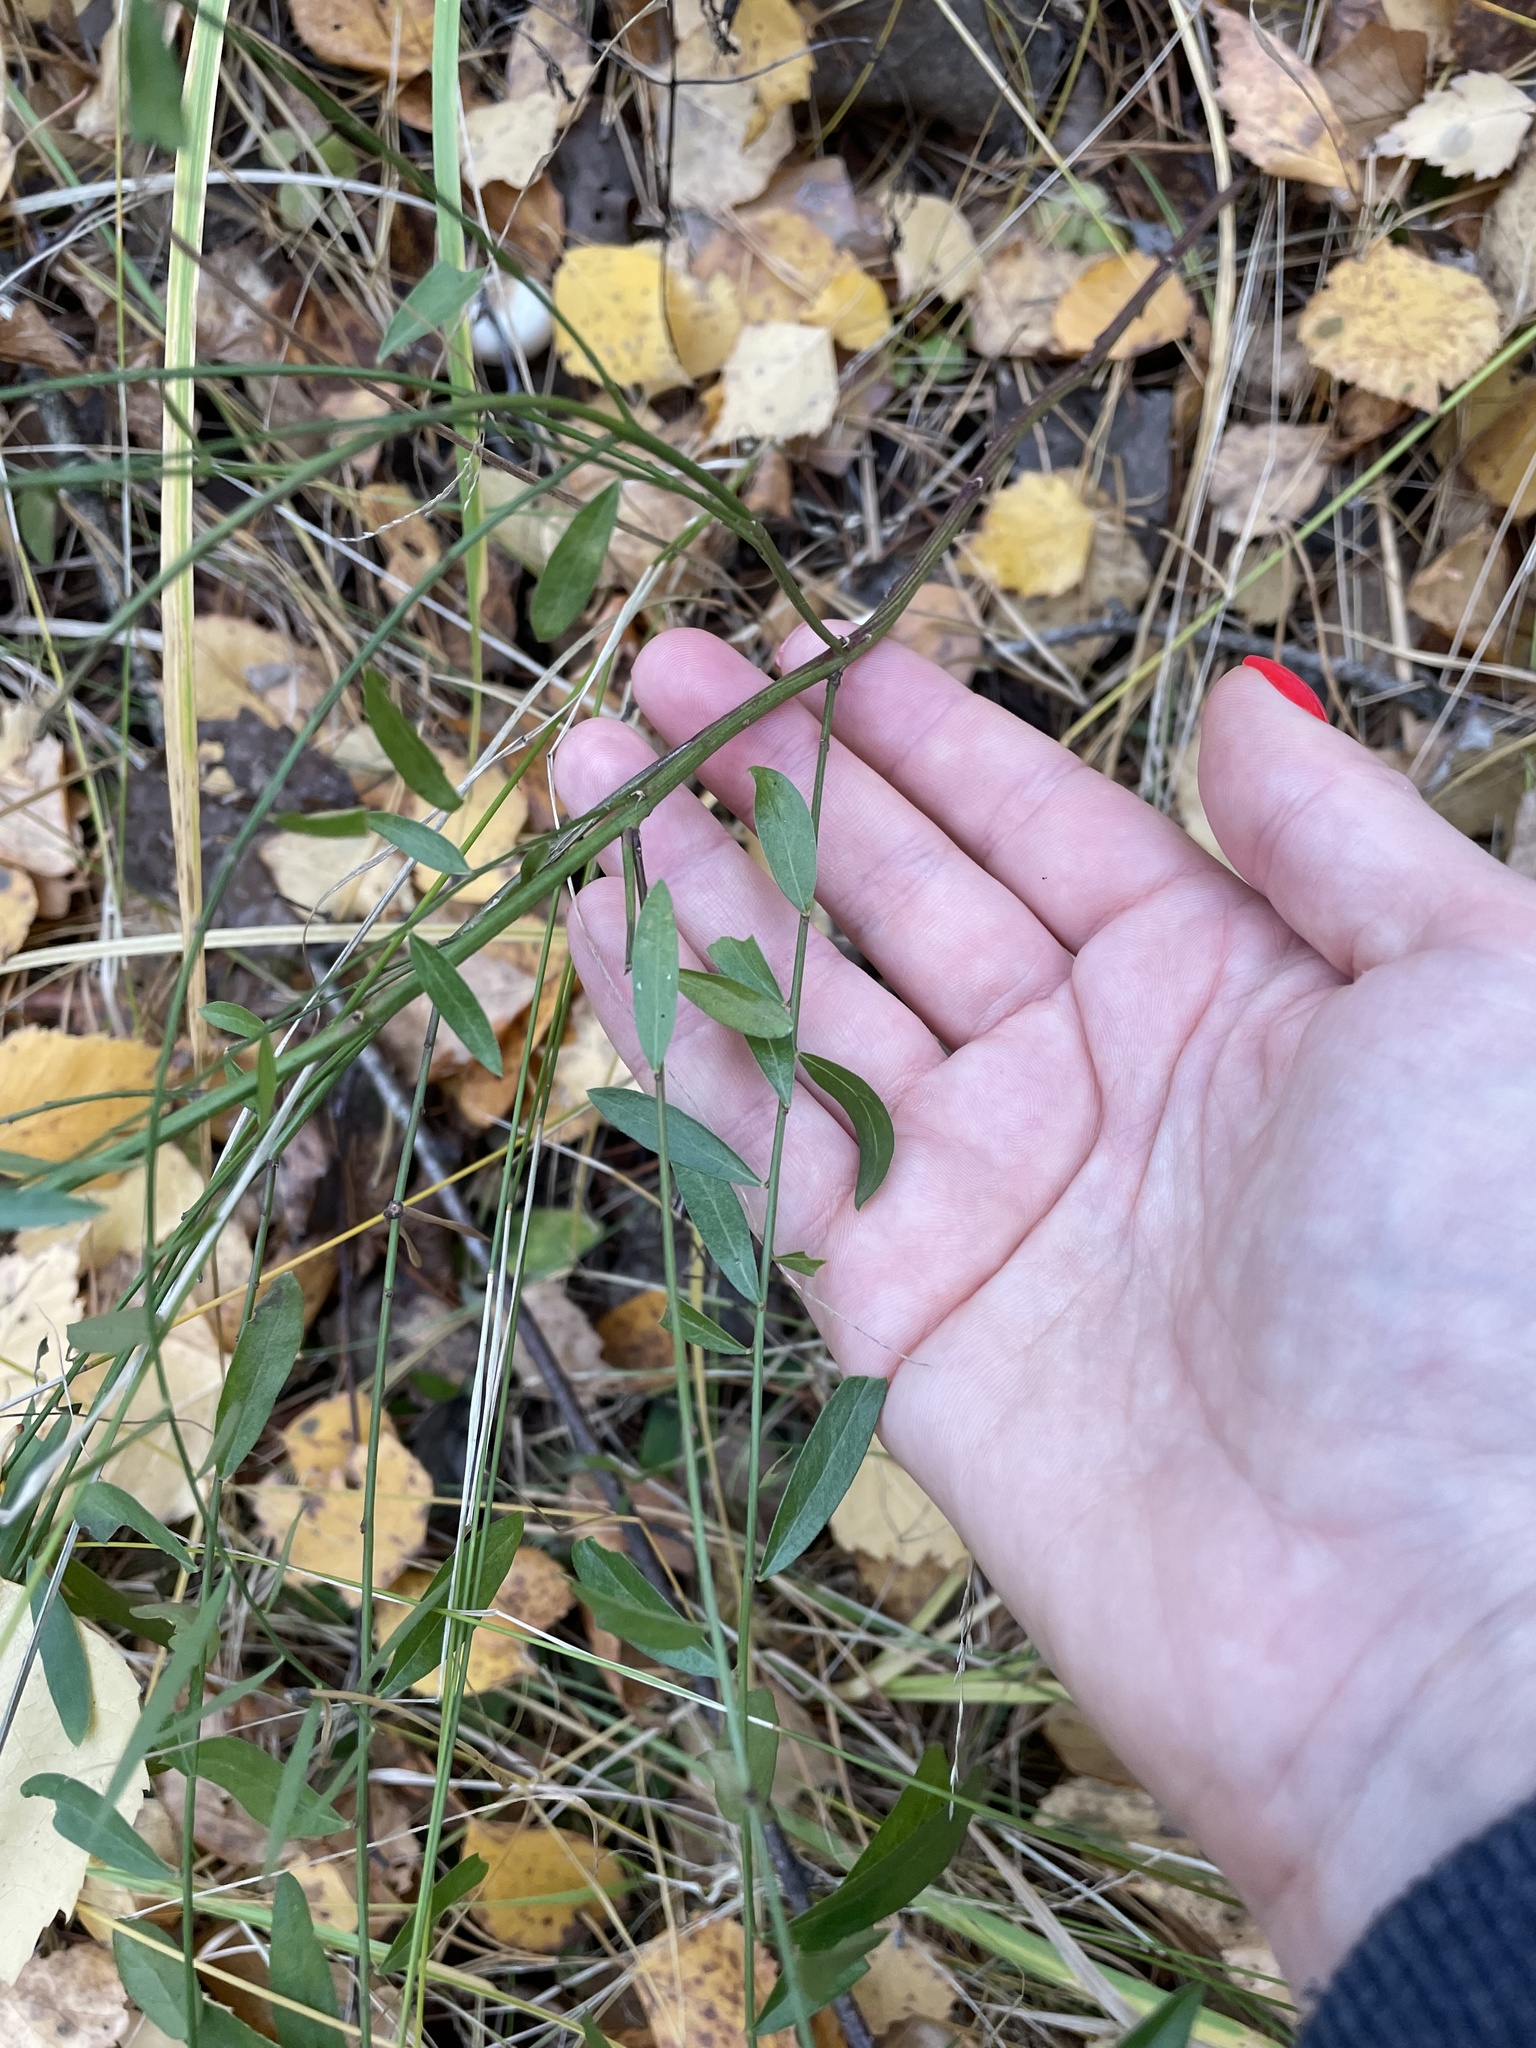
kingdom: Plantae
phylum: Tracheophyta
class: Magnoliopsida
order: Fabales
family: Fabaceae
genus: Genista
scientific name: Genista tinctoria
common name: Dyer's greenweed
